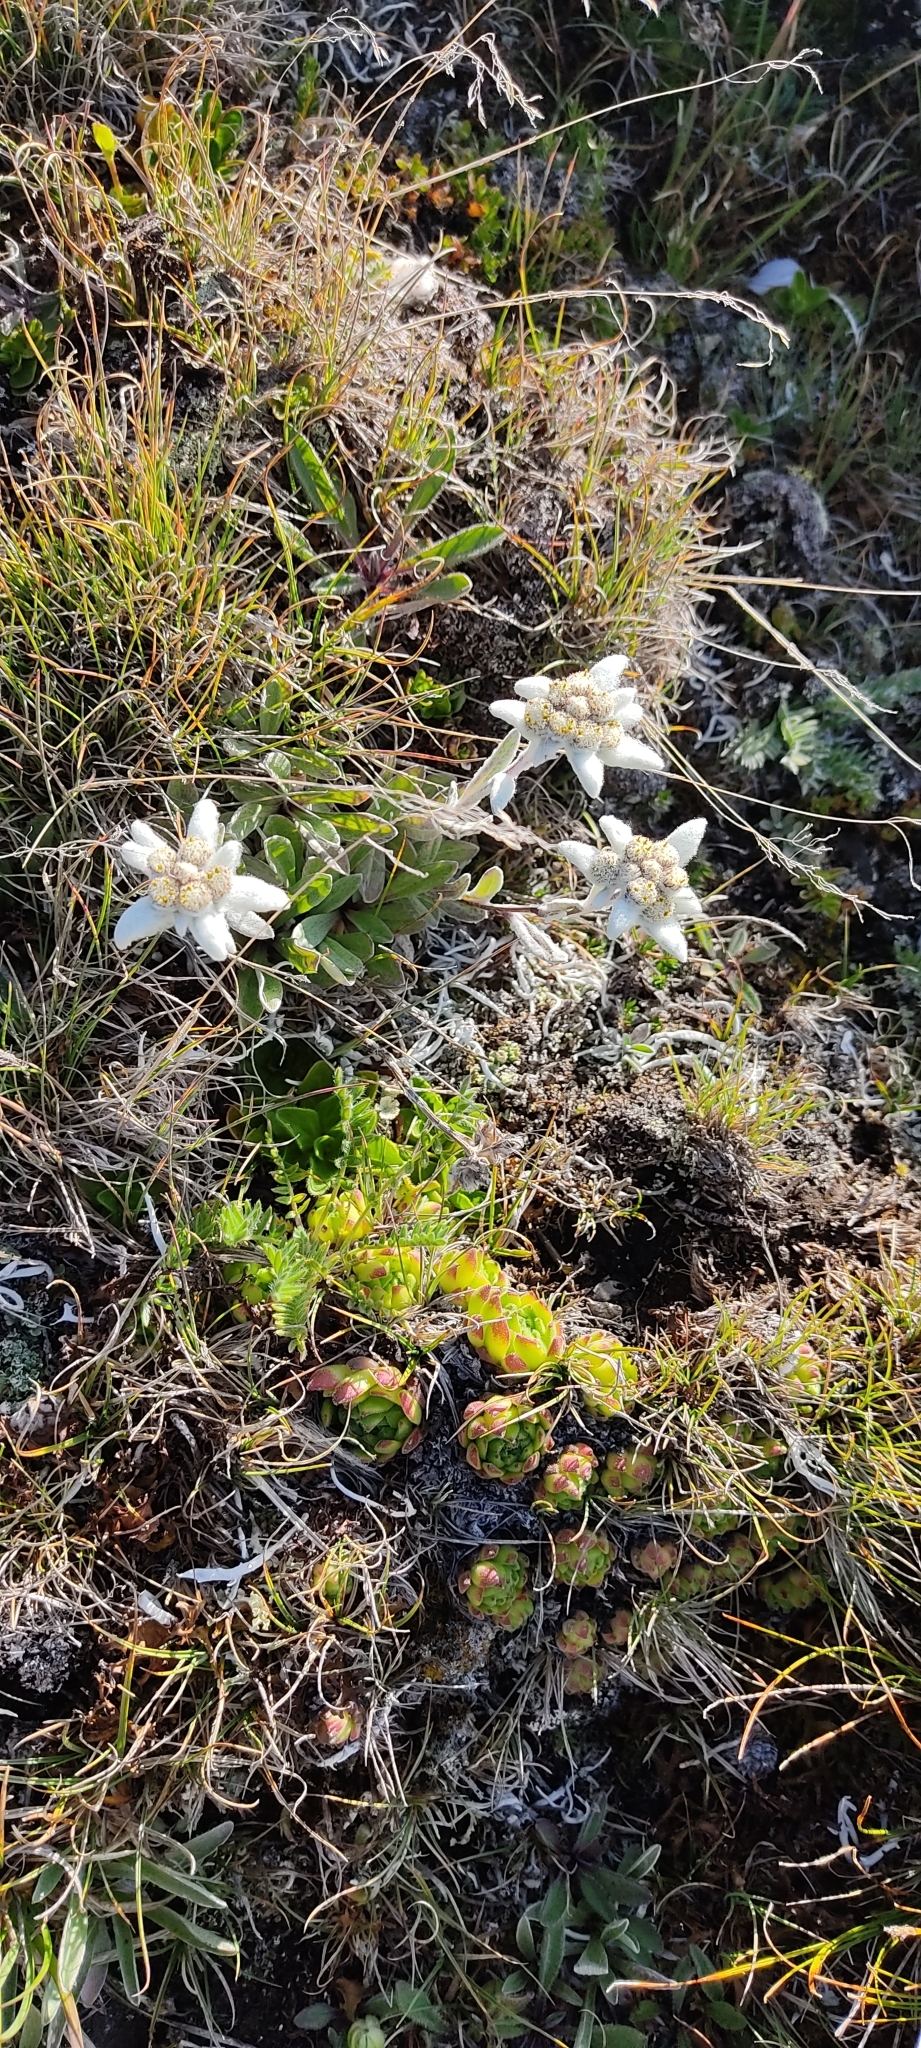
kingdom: Plantae
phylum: Tracheophyta
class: Magnoliopsida
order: Asterales
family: Asteraceae
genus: Leontopodium
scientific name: Leontopodium nivale
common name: Edelweiss
